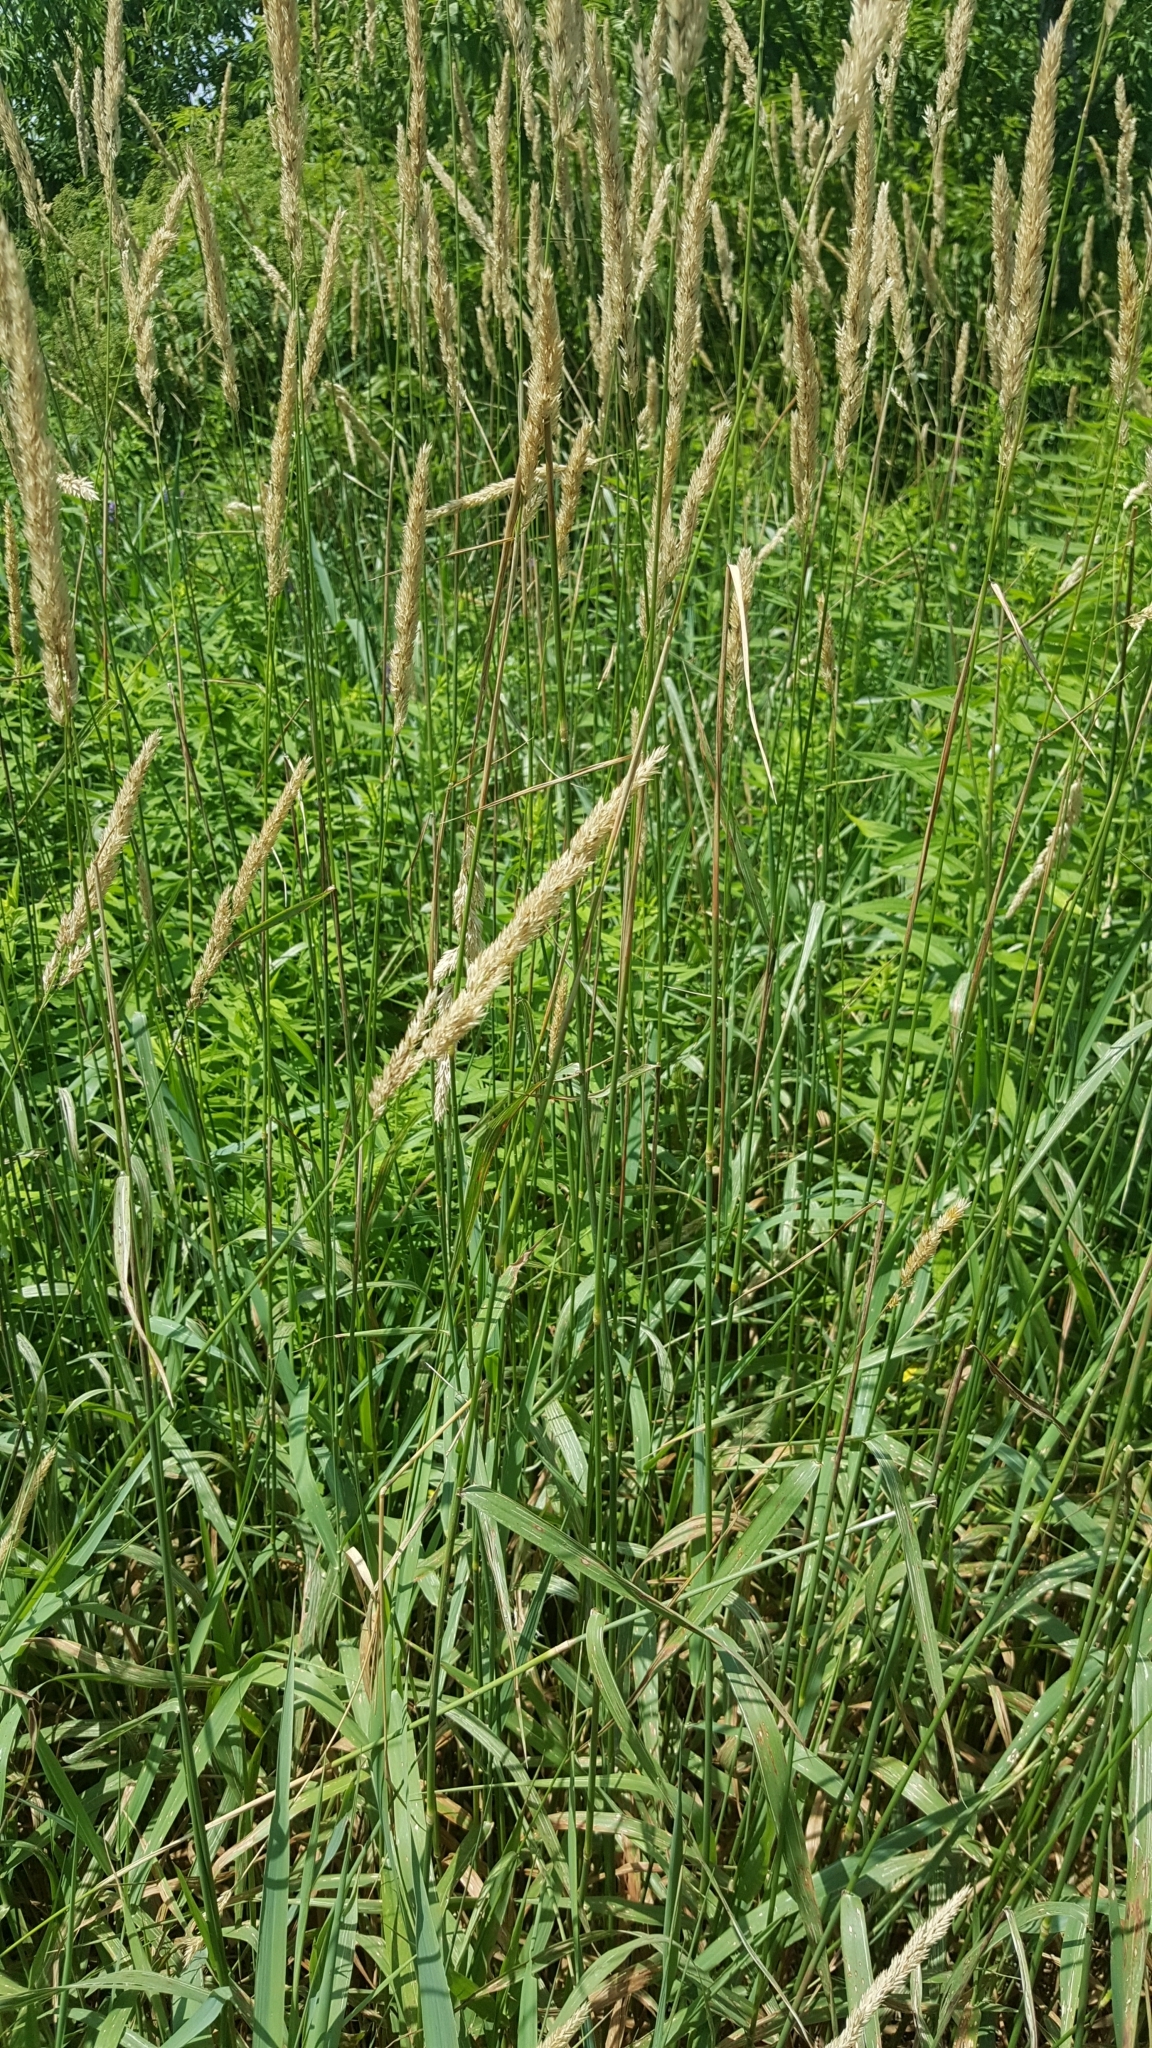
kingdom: Plantae
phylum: Tracheophyta
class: Liliopsida
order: Poales
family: Poaceae
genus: Phalaris
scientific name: Phalaris arundinacea
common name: Reed canary-grass
